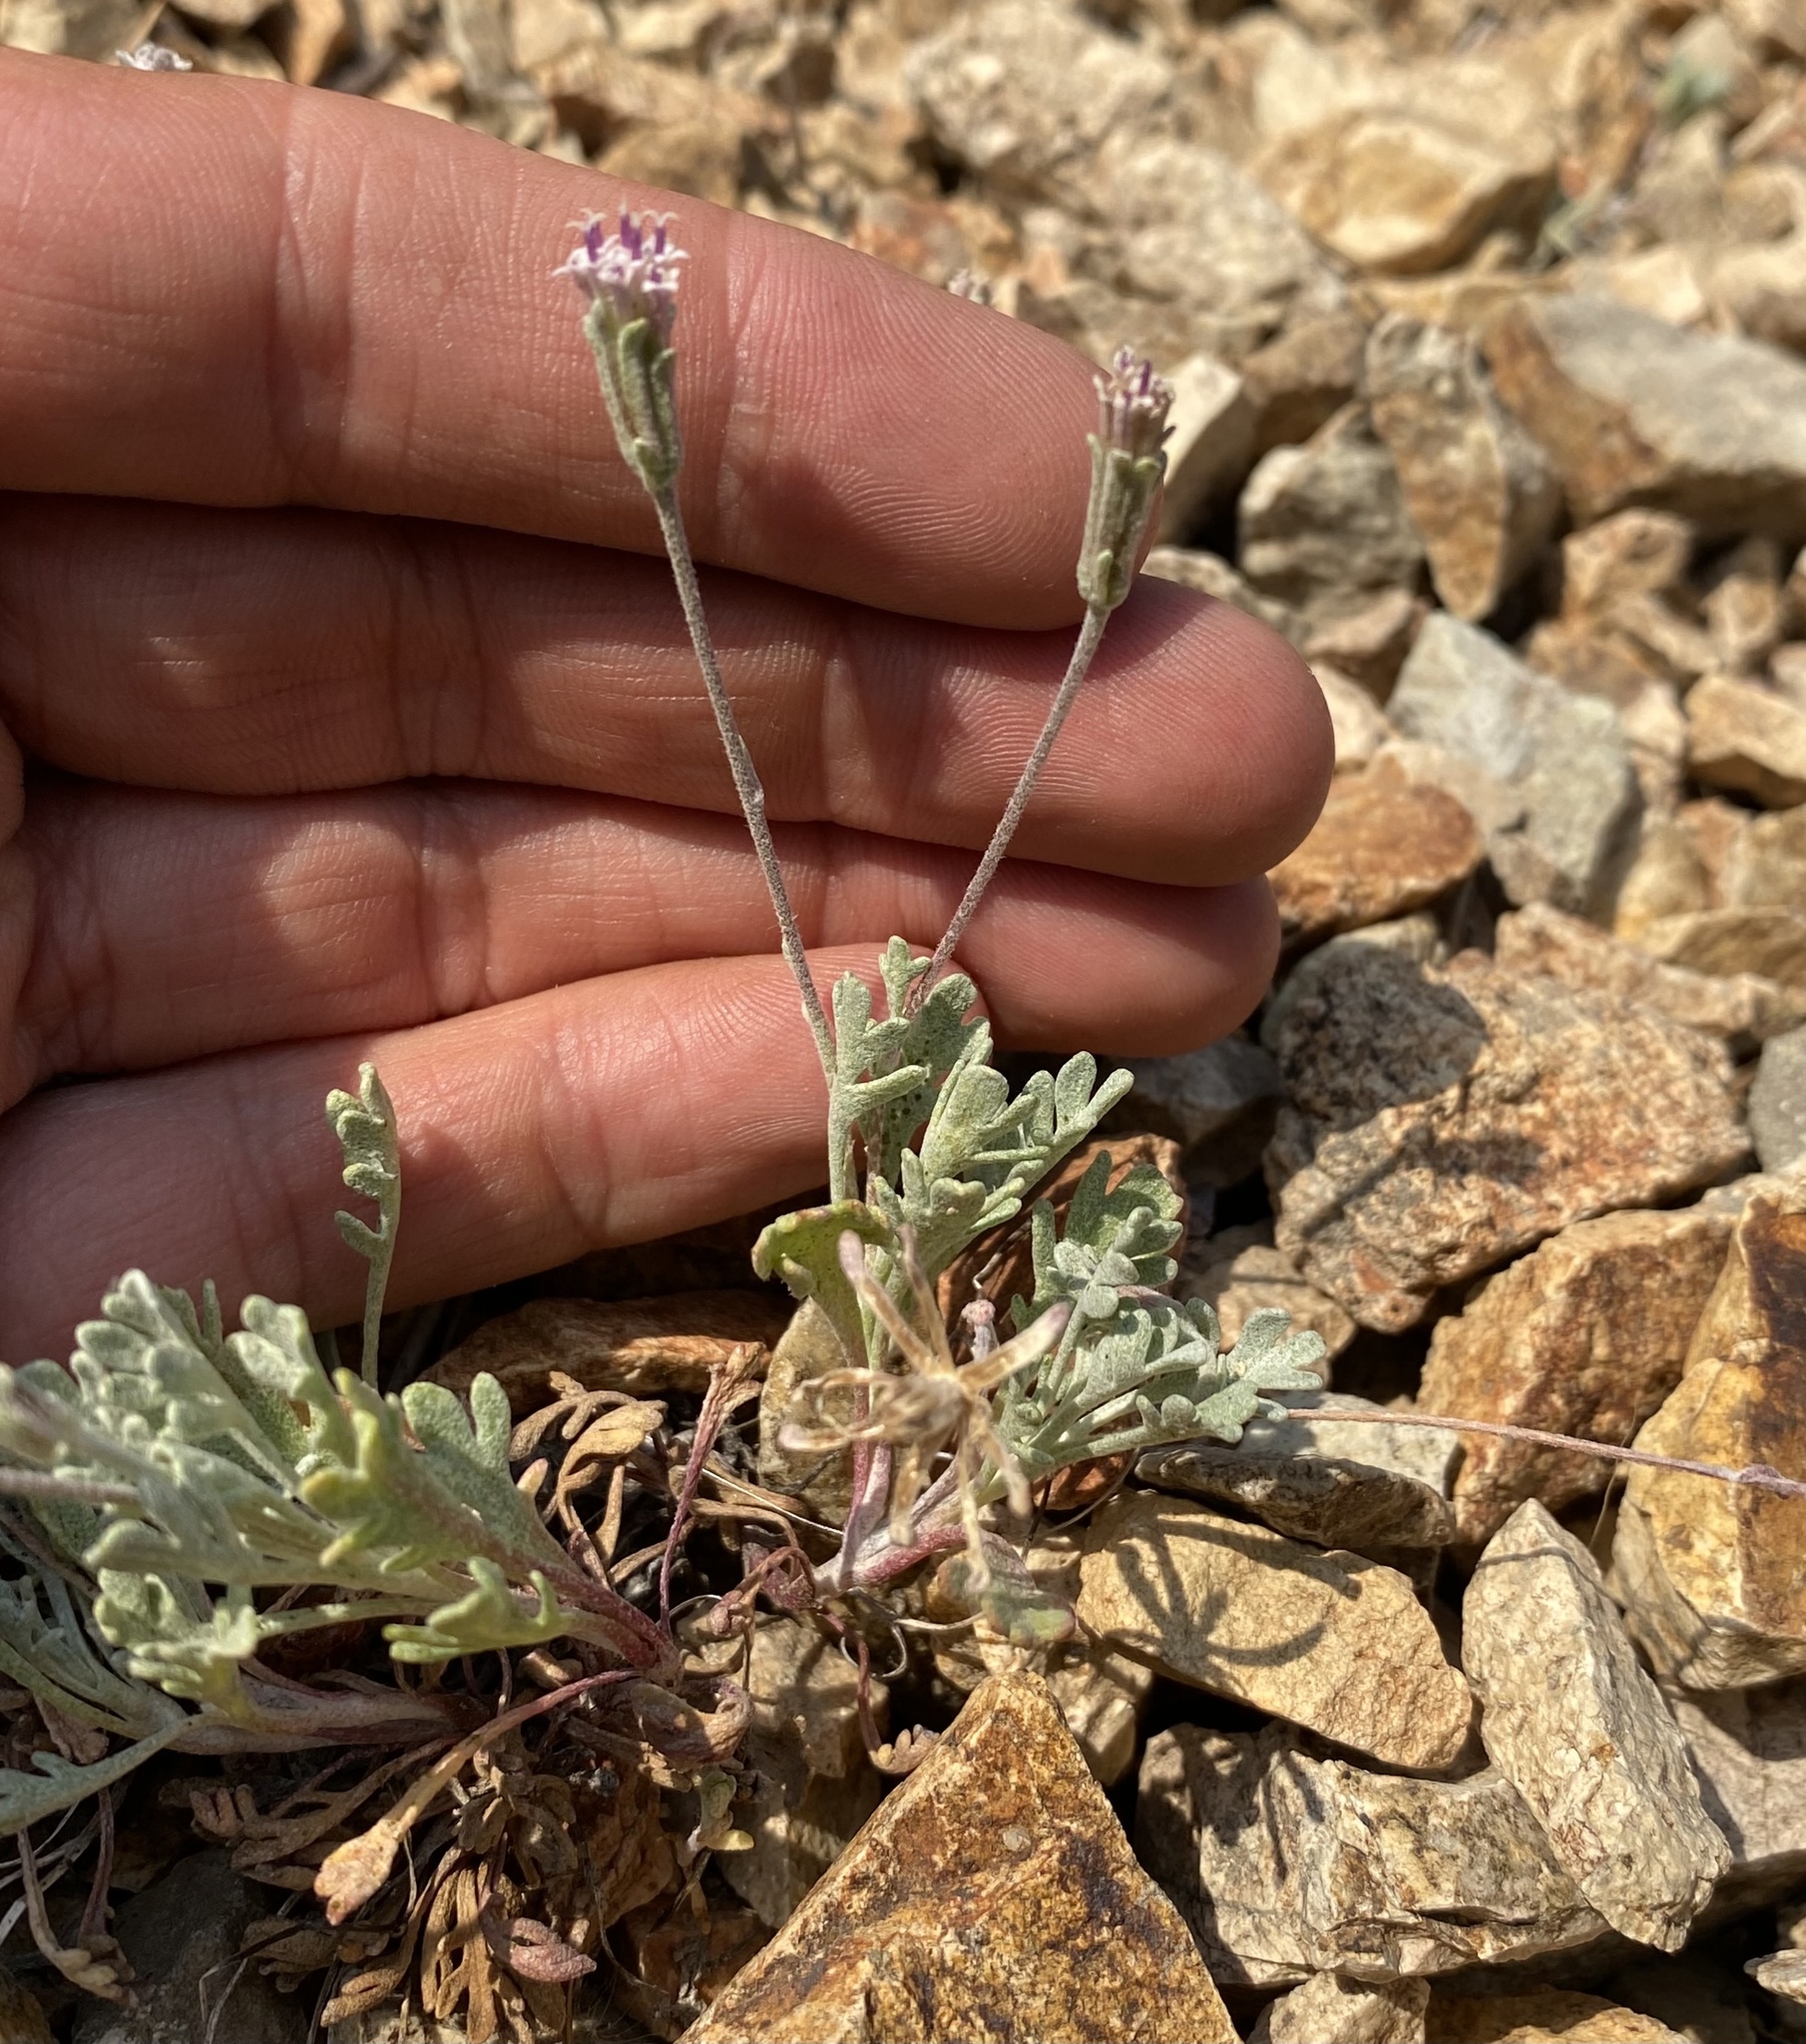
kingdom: Plantae
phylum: Tracheophyta
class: Magnoliopsida
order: Asterales
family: Asteraceae
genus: Chaenactis
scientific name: Chaenactis evermannii
